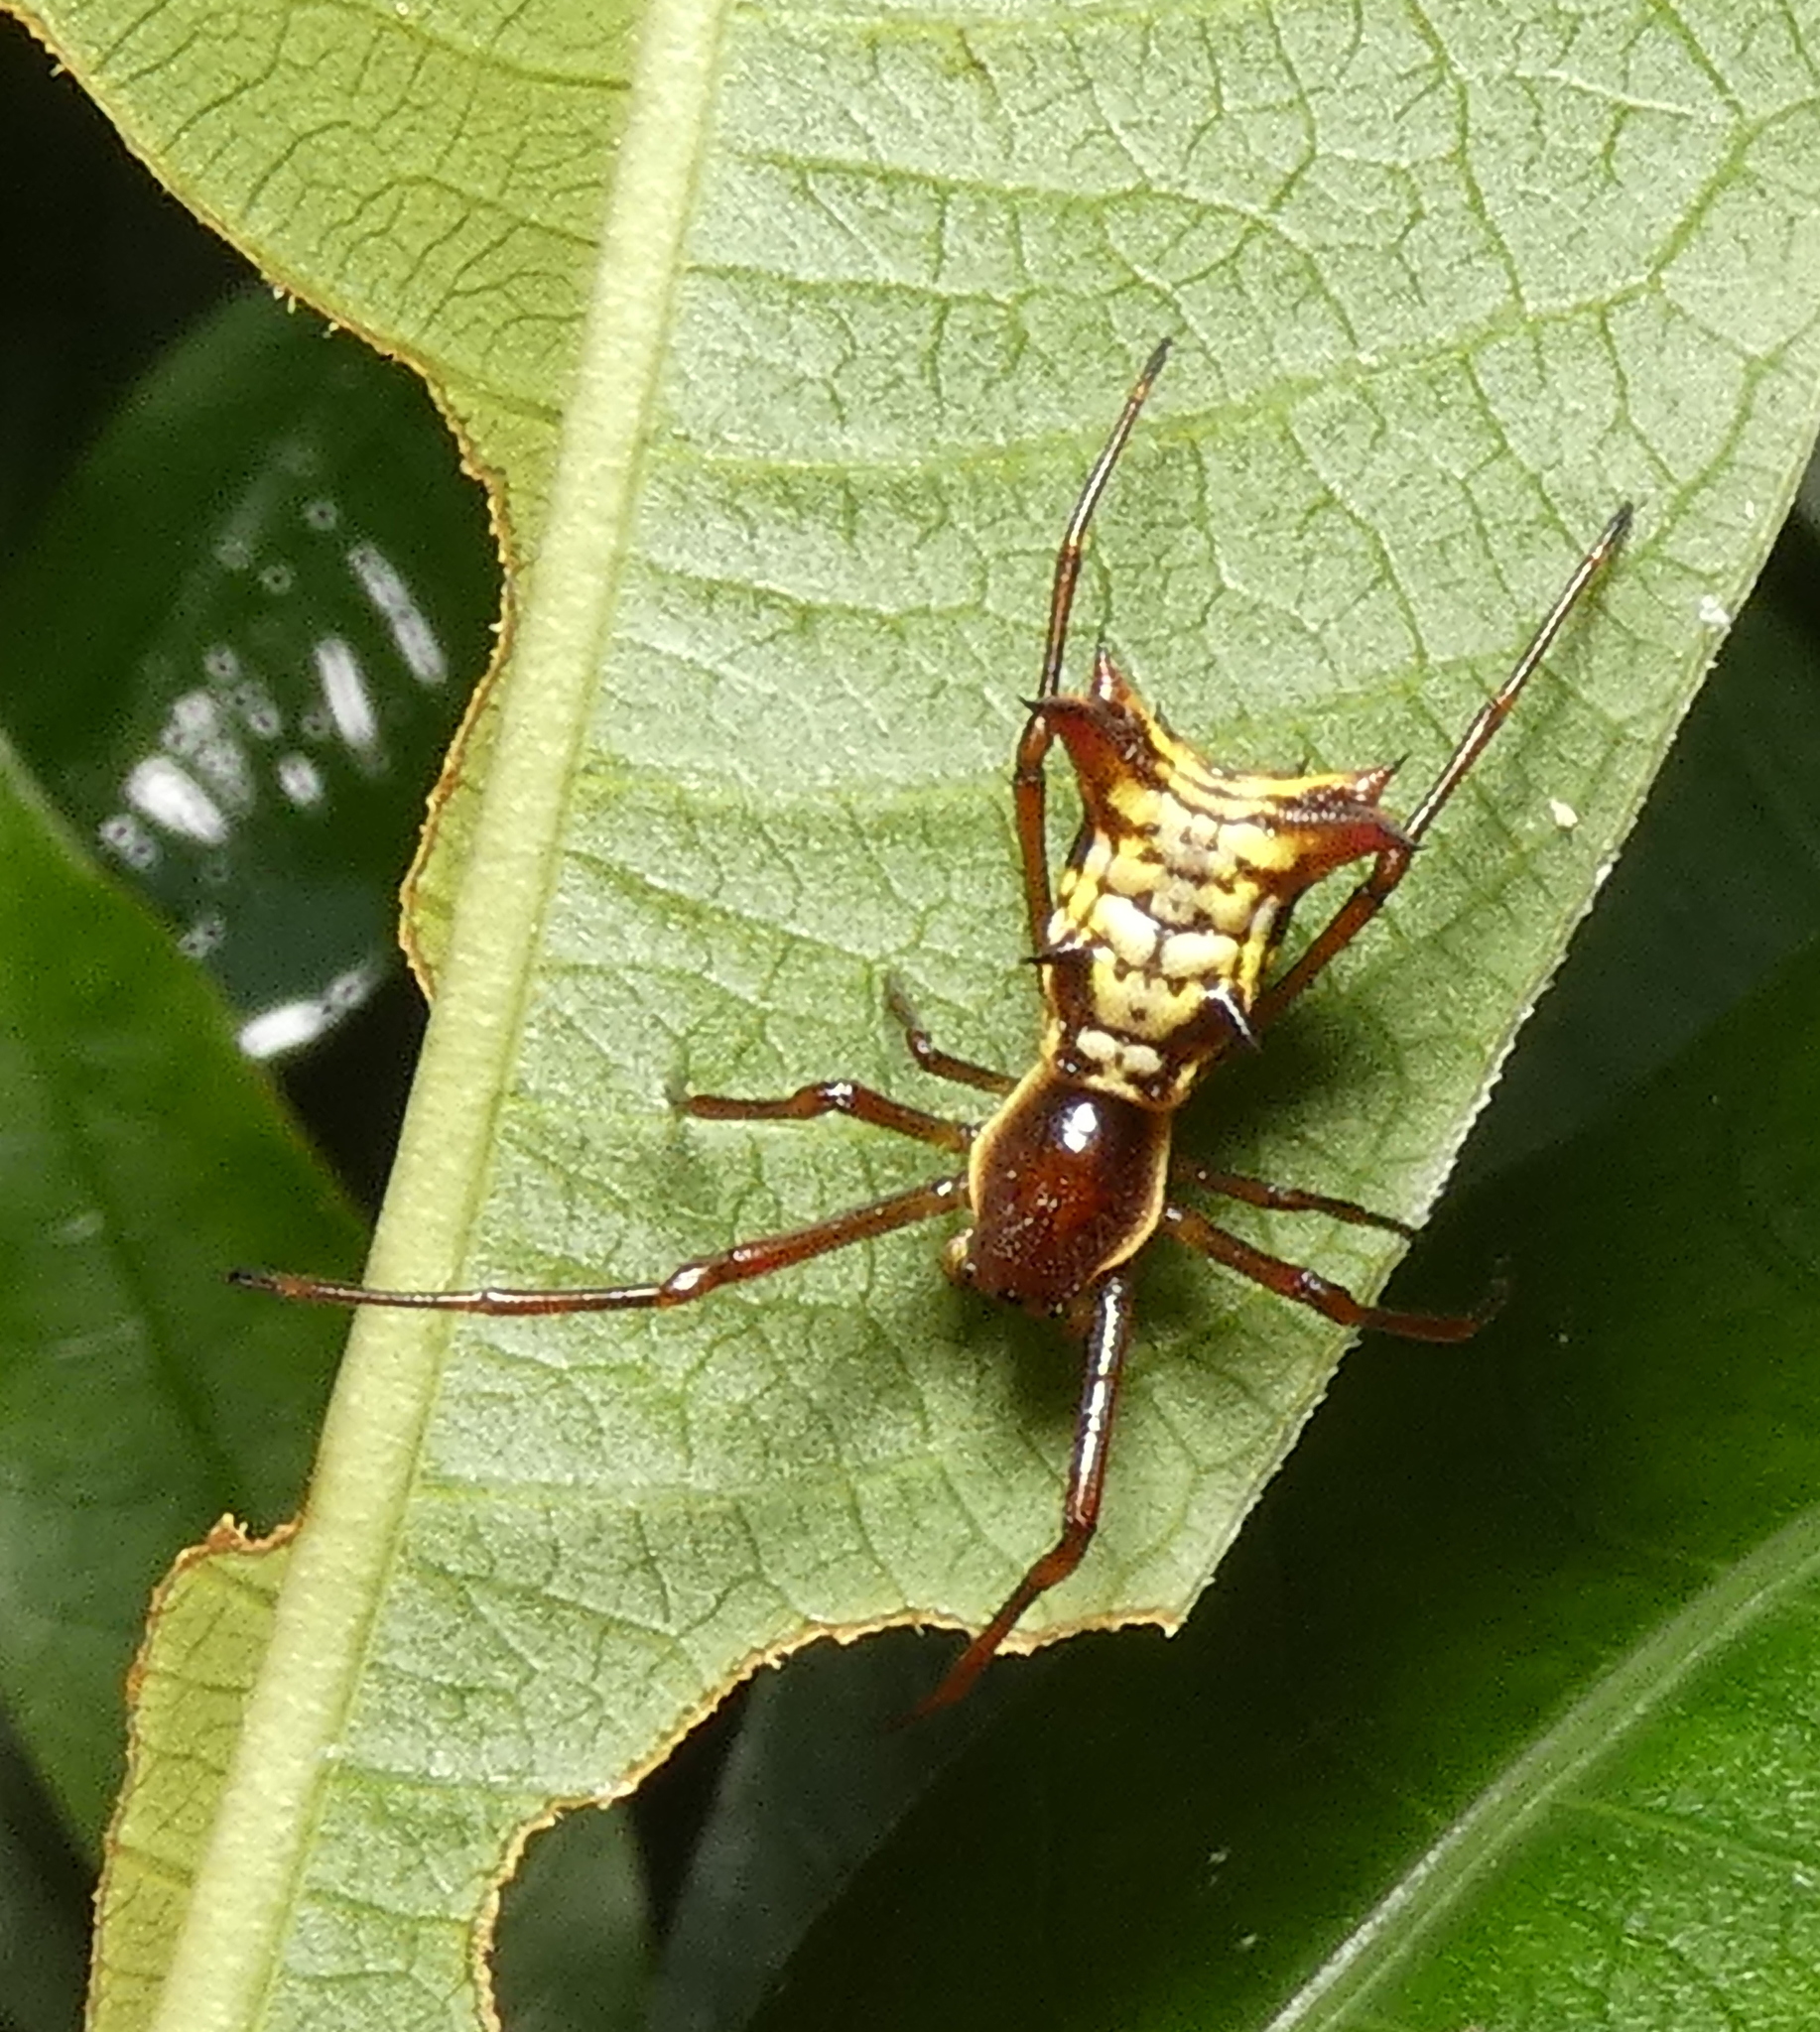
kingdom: Animalia
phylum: Arthropoda
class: Arachnida
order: Araneae
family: Araneidae
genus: Micrathena
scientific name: Micrathena fissispina
